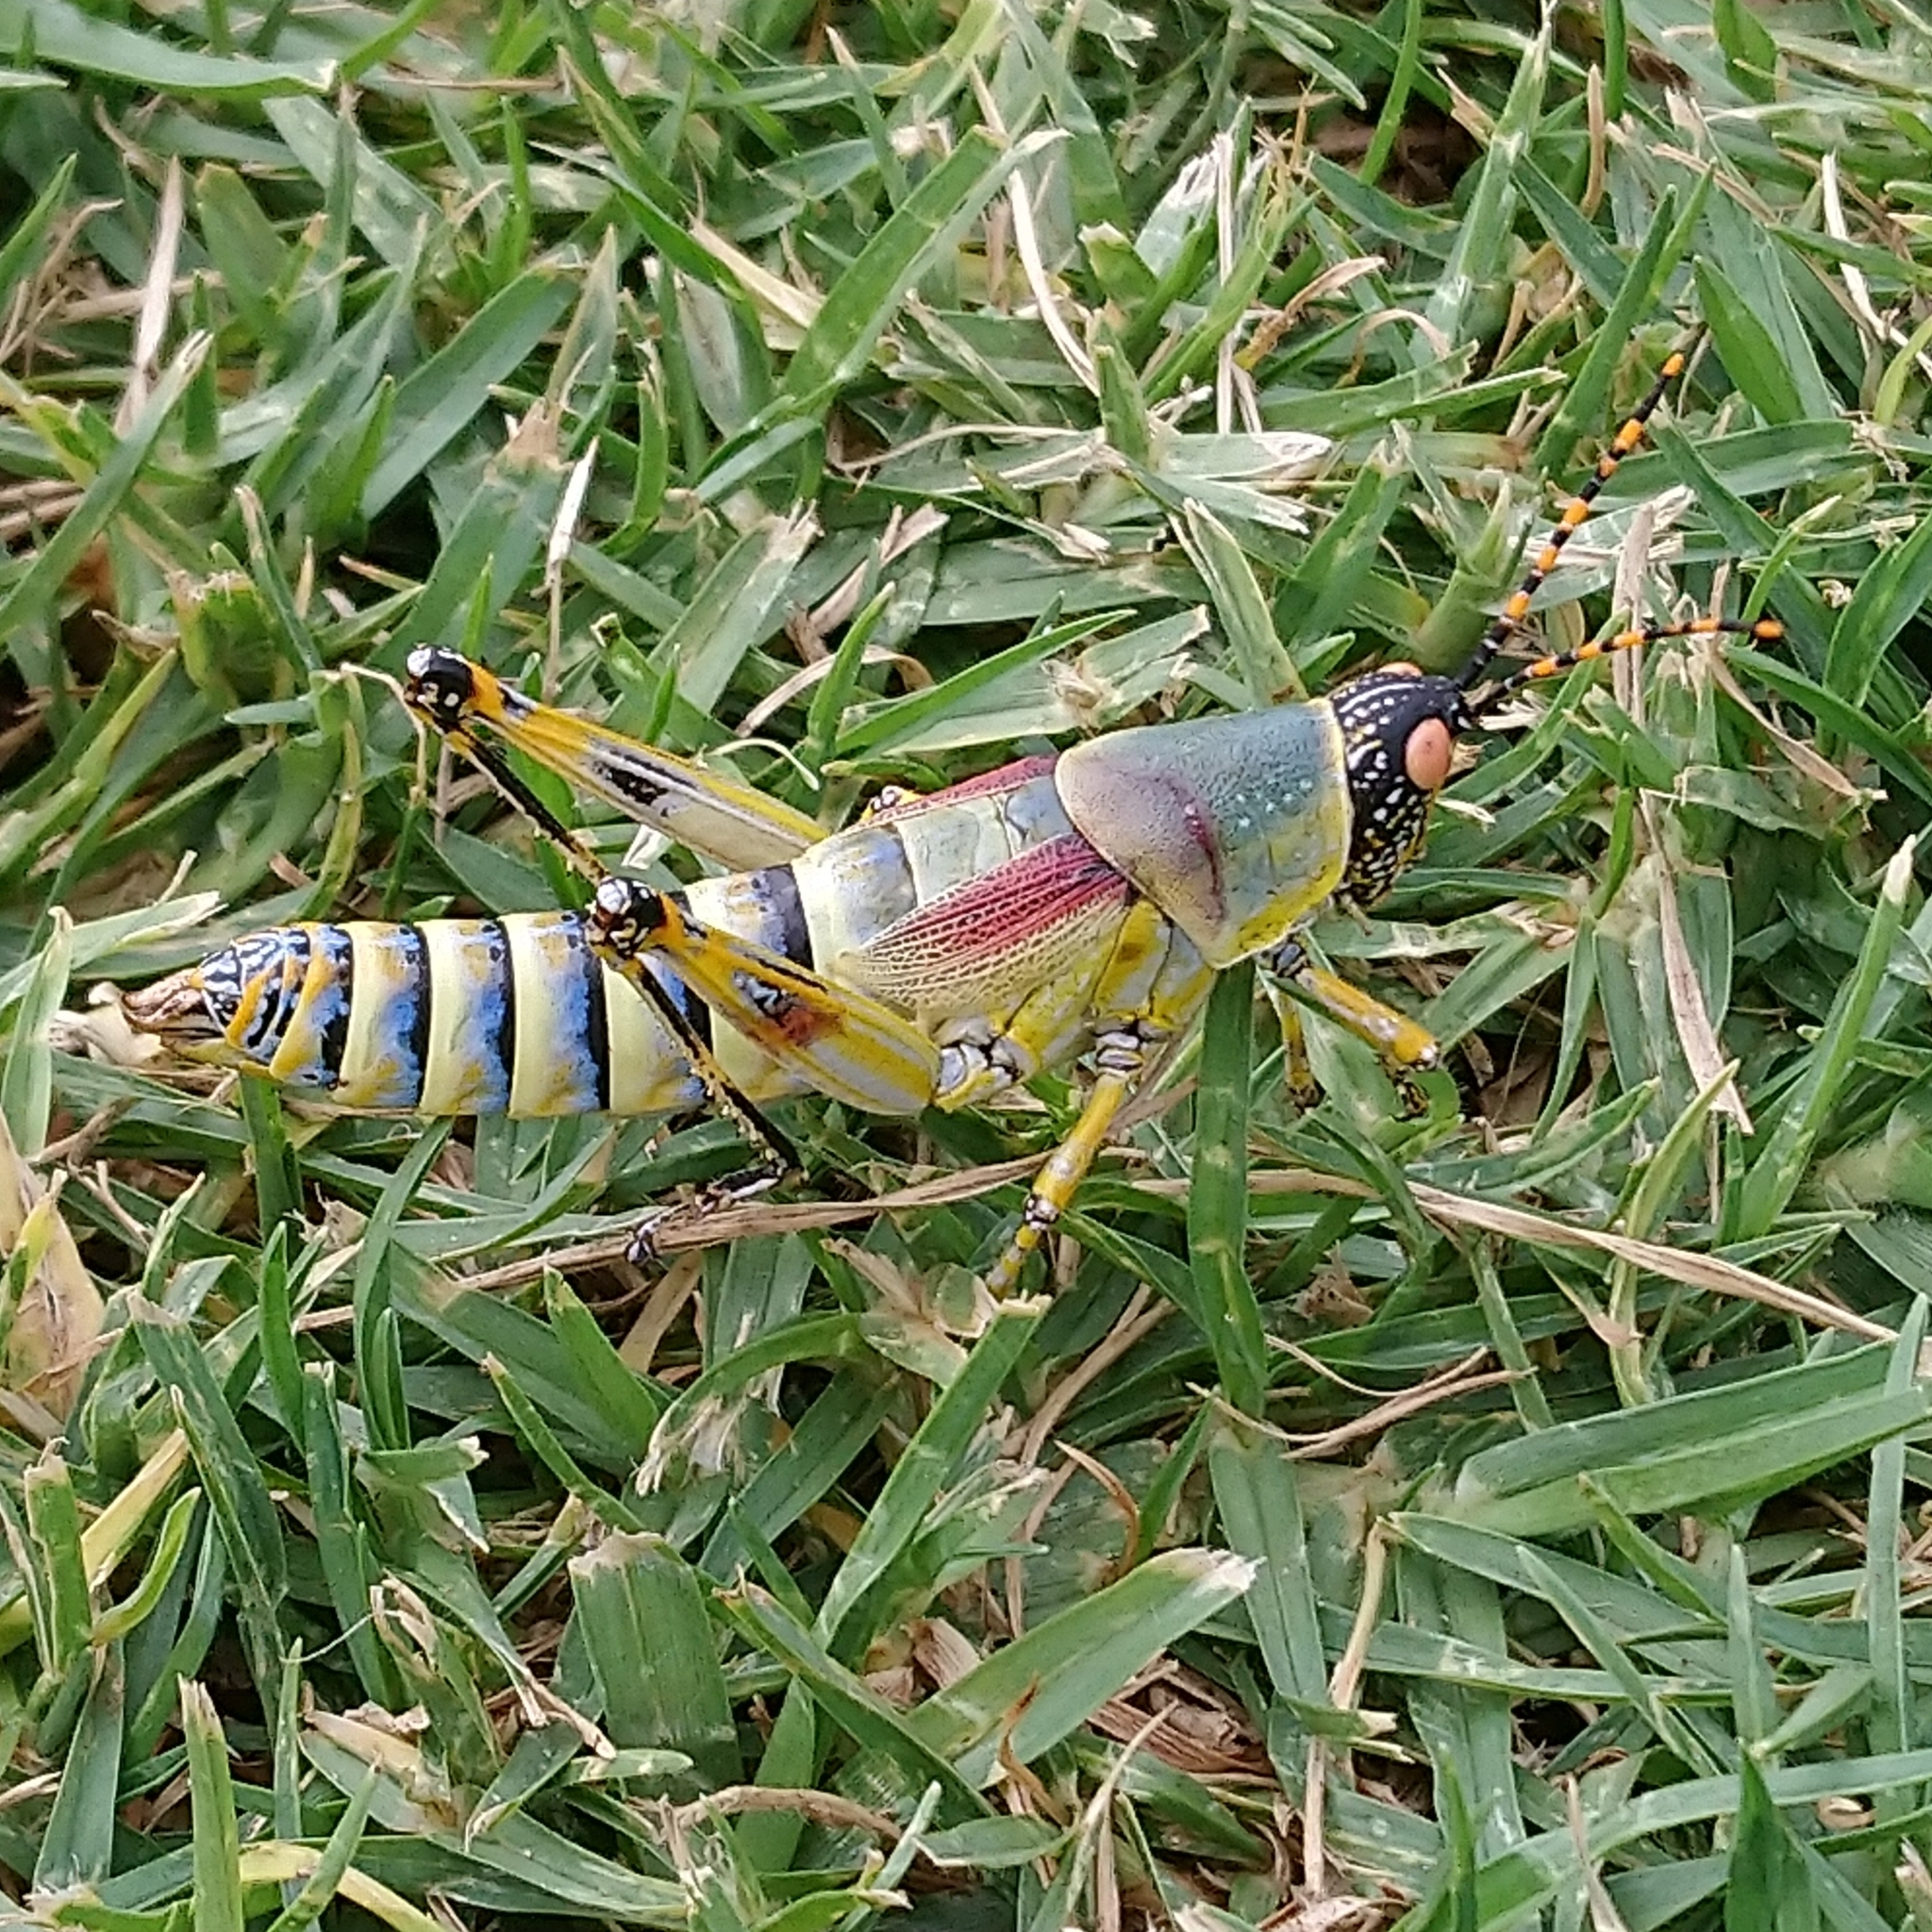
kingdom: Animalia
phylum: Arthropoda
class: Insecta
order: Orthoptera
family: Pyrgomorphidae
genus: Zonocerus
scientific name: Zonocerus elegans
